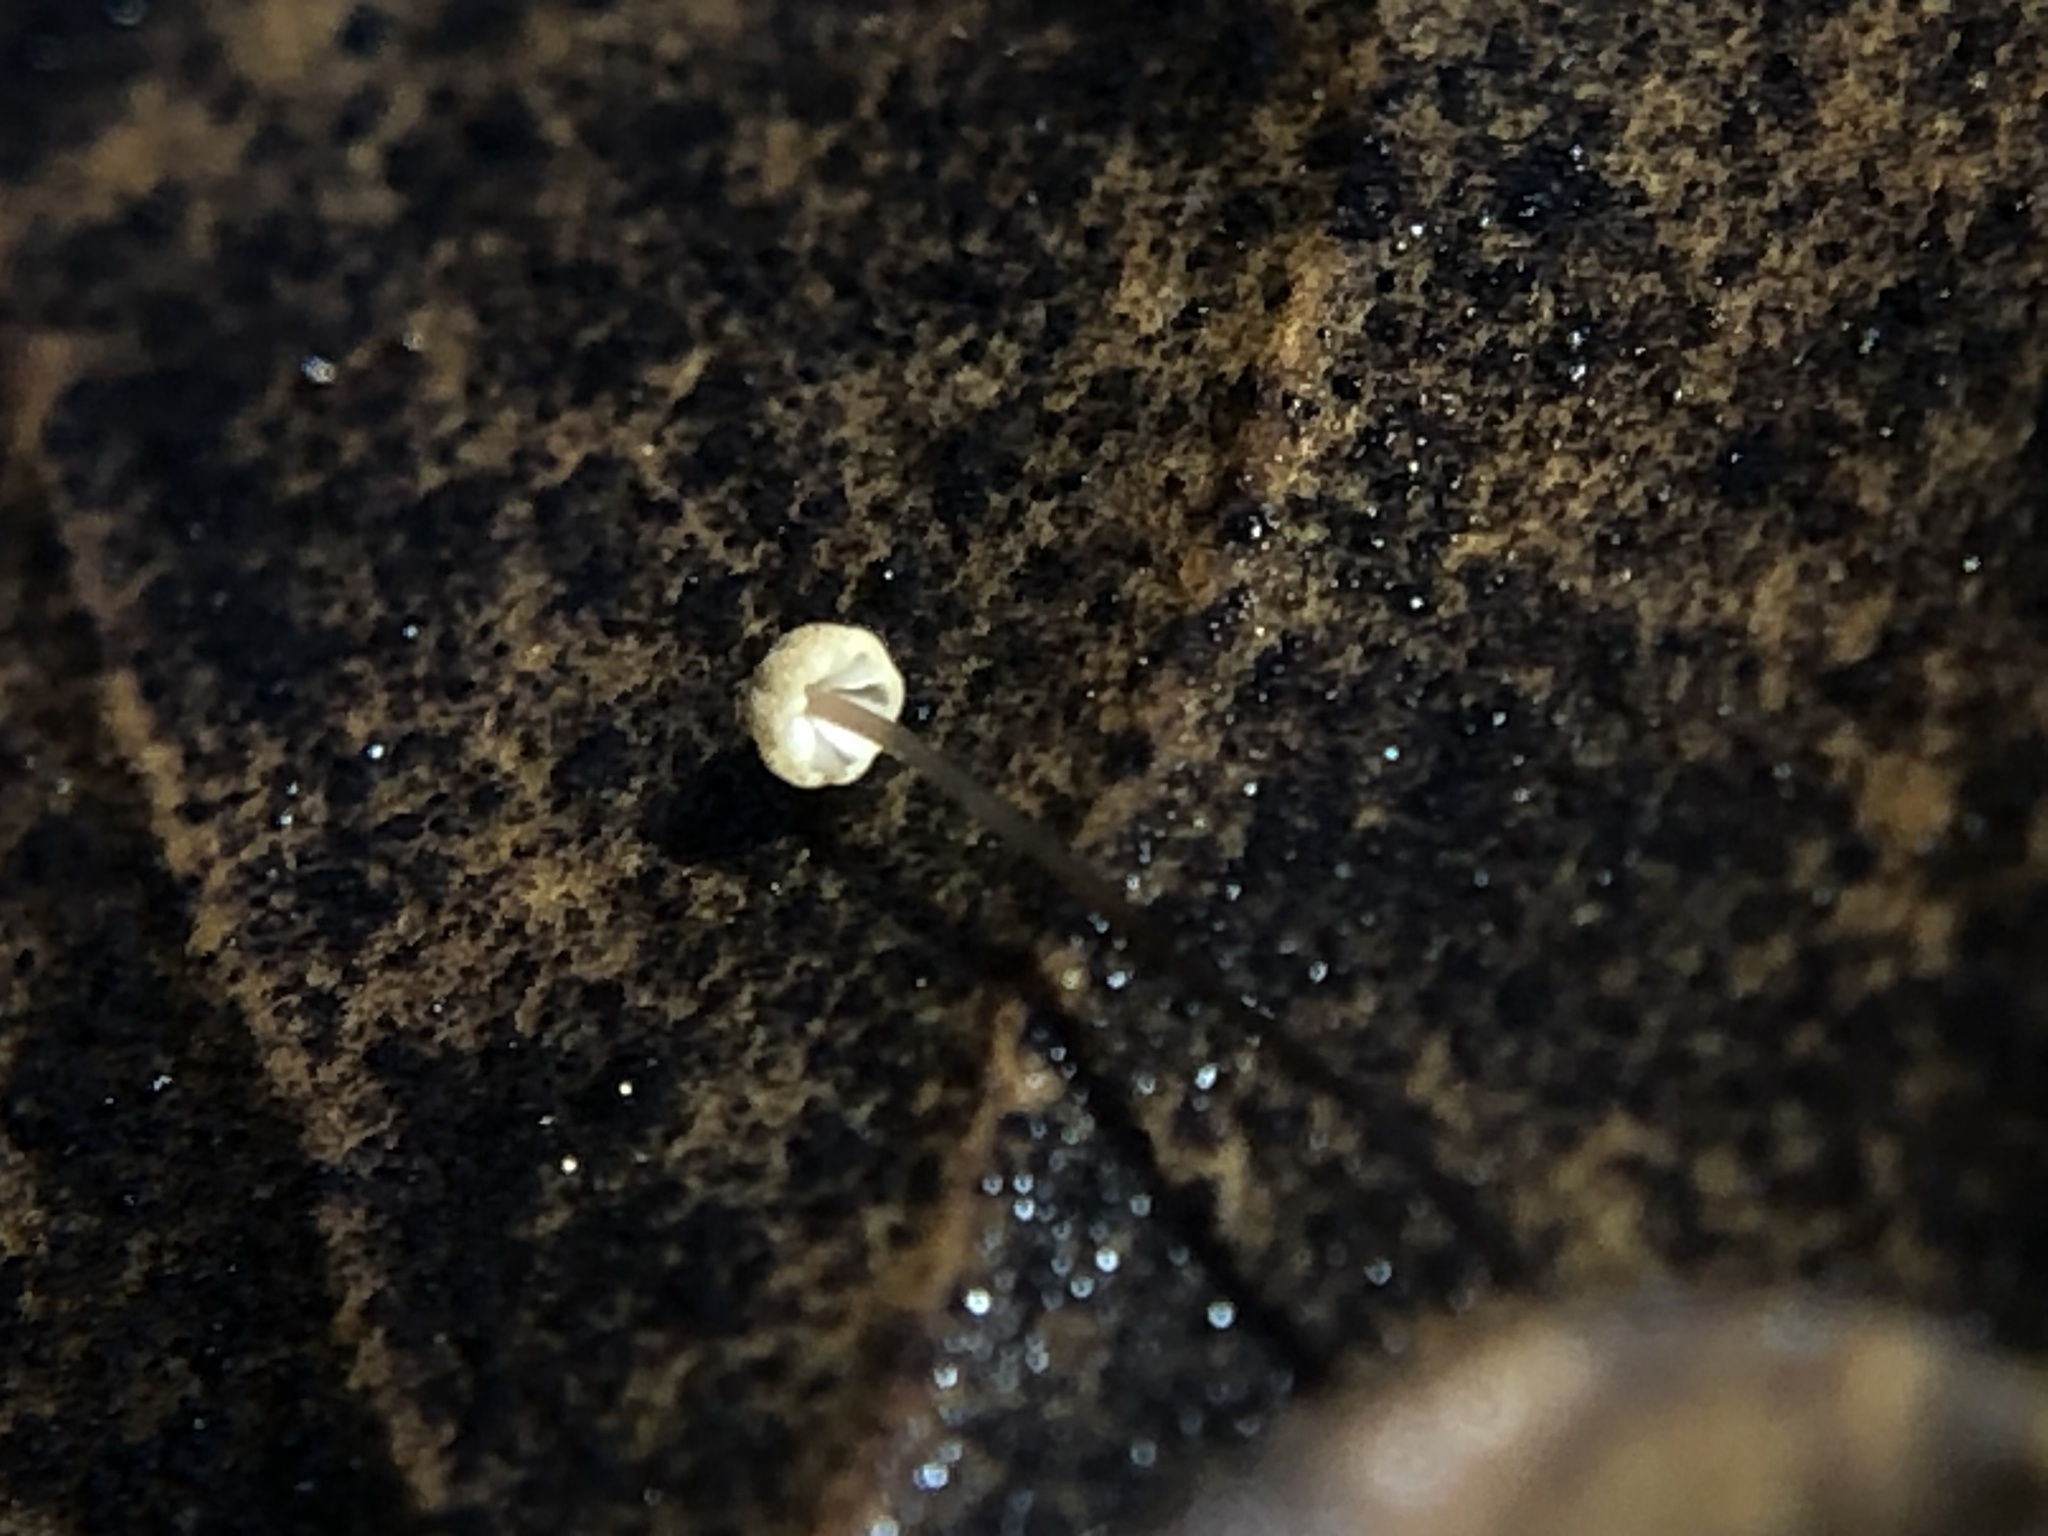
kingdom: Fungi
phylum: Basidiomycota
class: Agaricomycetes
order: Agaricales
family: Physalacriaceae
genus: Cryptomarasmius
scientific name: Cryptomarasmius corbariensis
